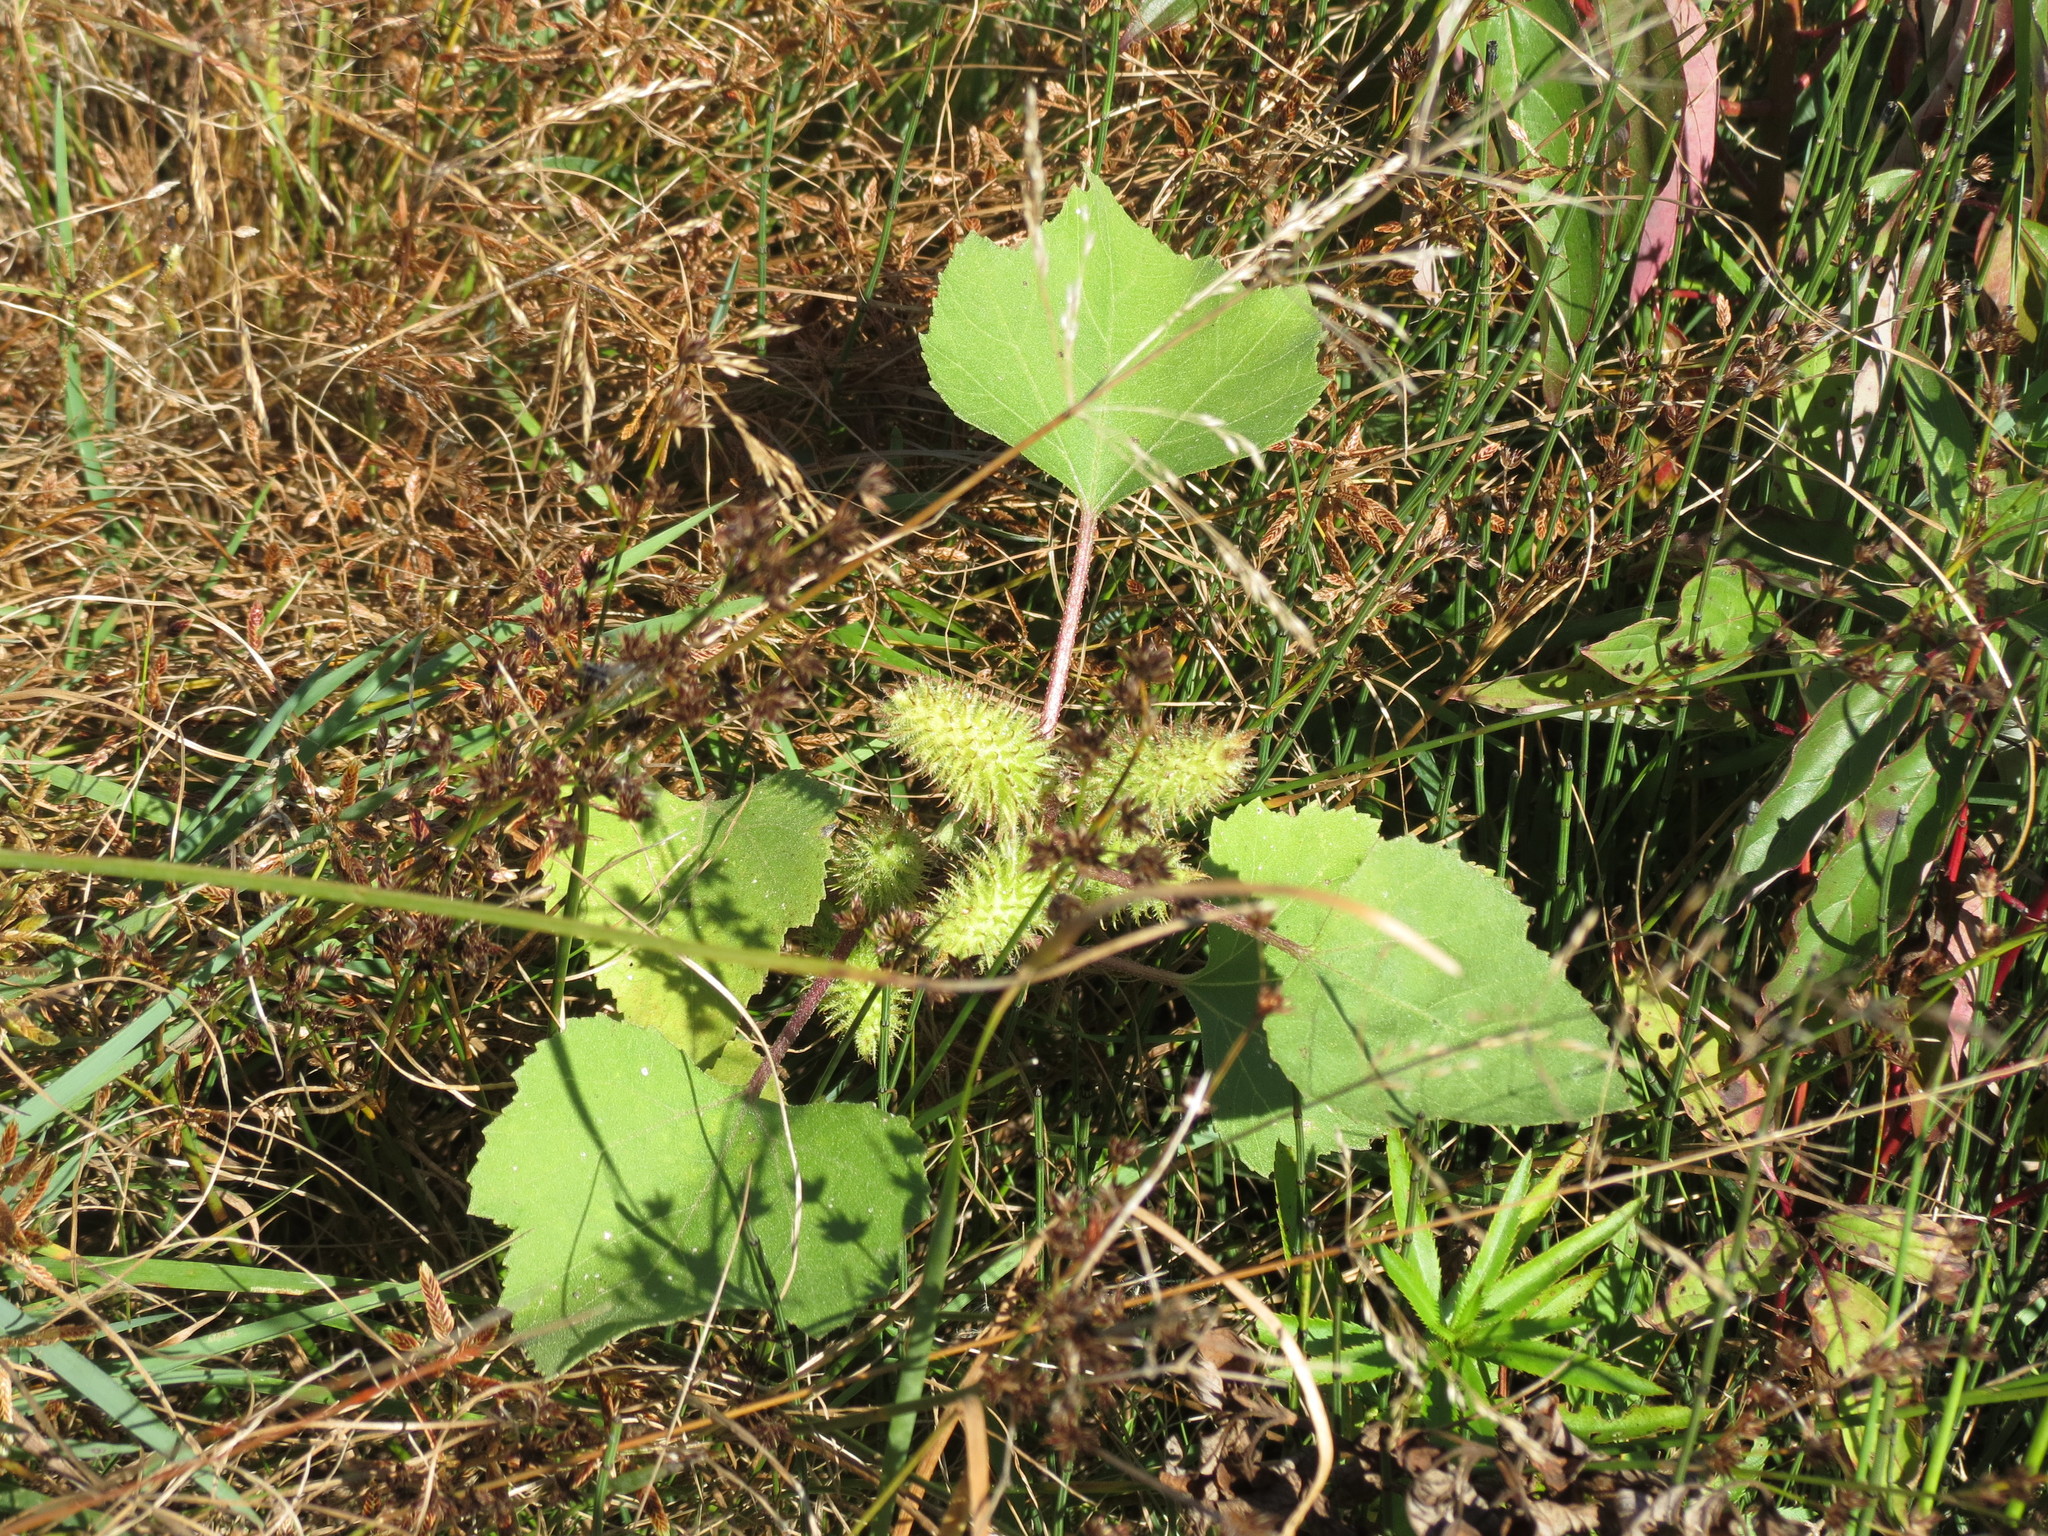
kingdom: Plantae
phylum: Tracheophyta
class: Magnoliopsida
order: Asterales
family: Asteraceae
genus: Xanthium
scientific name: Xanthium strumarium
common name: Rough cocklebur
